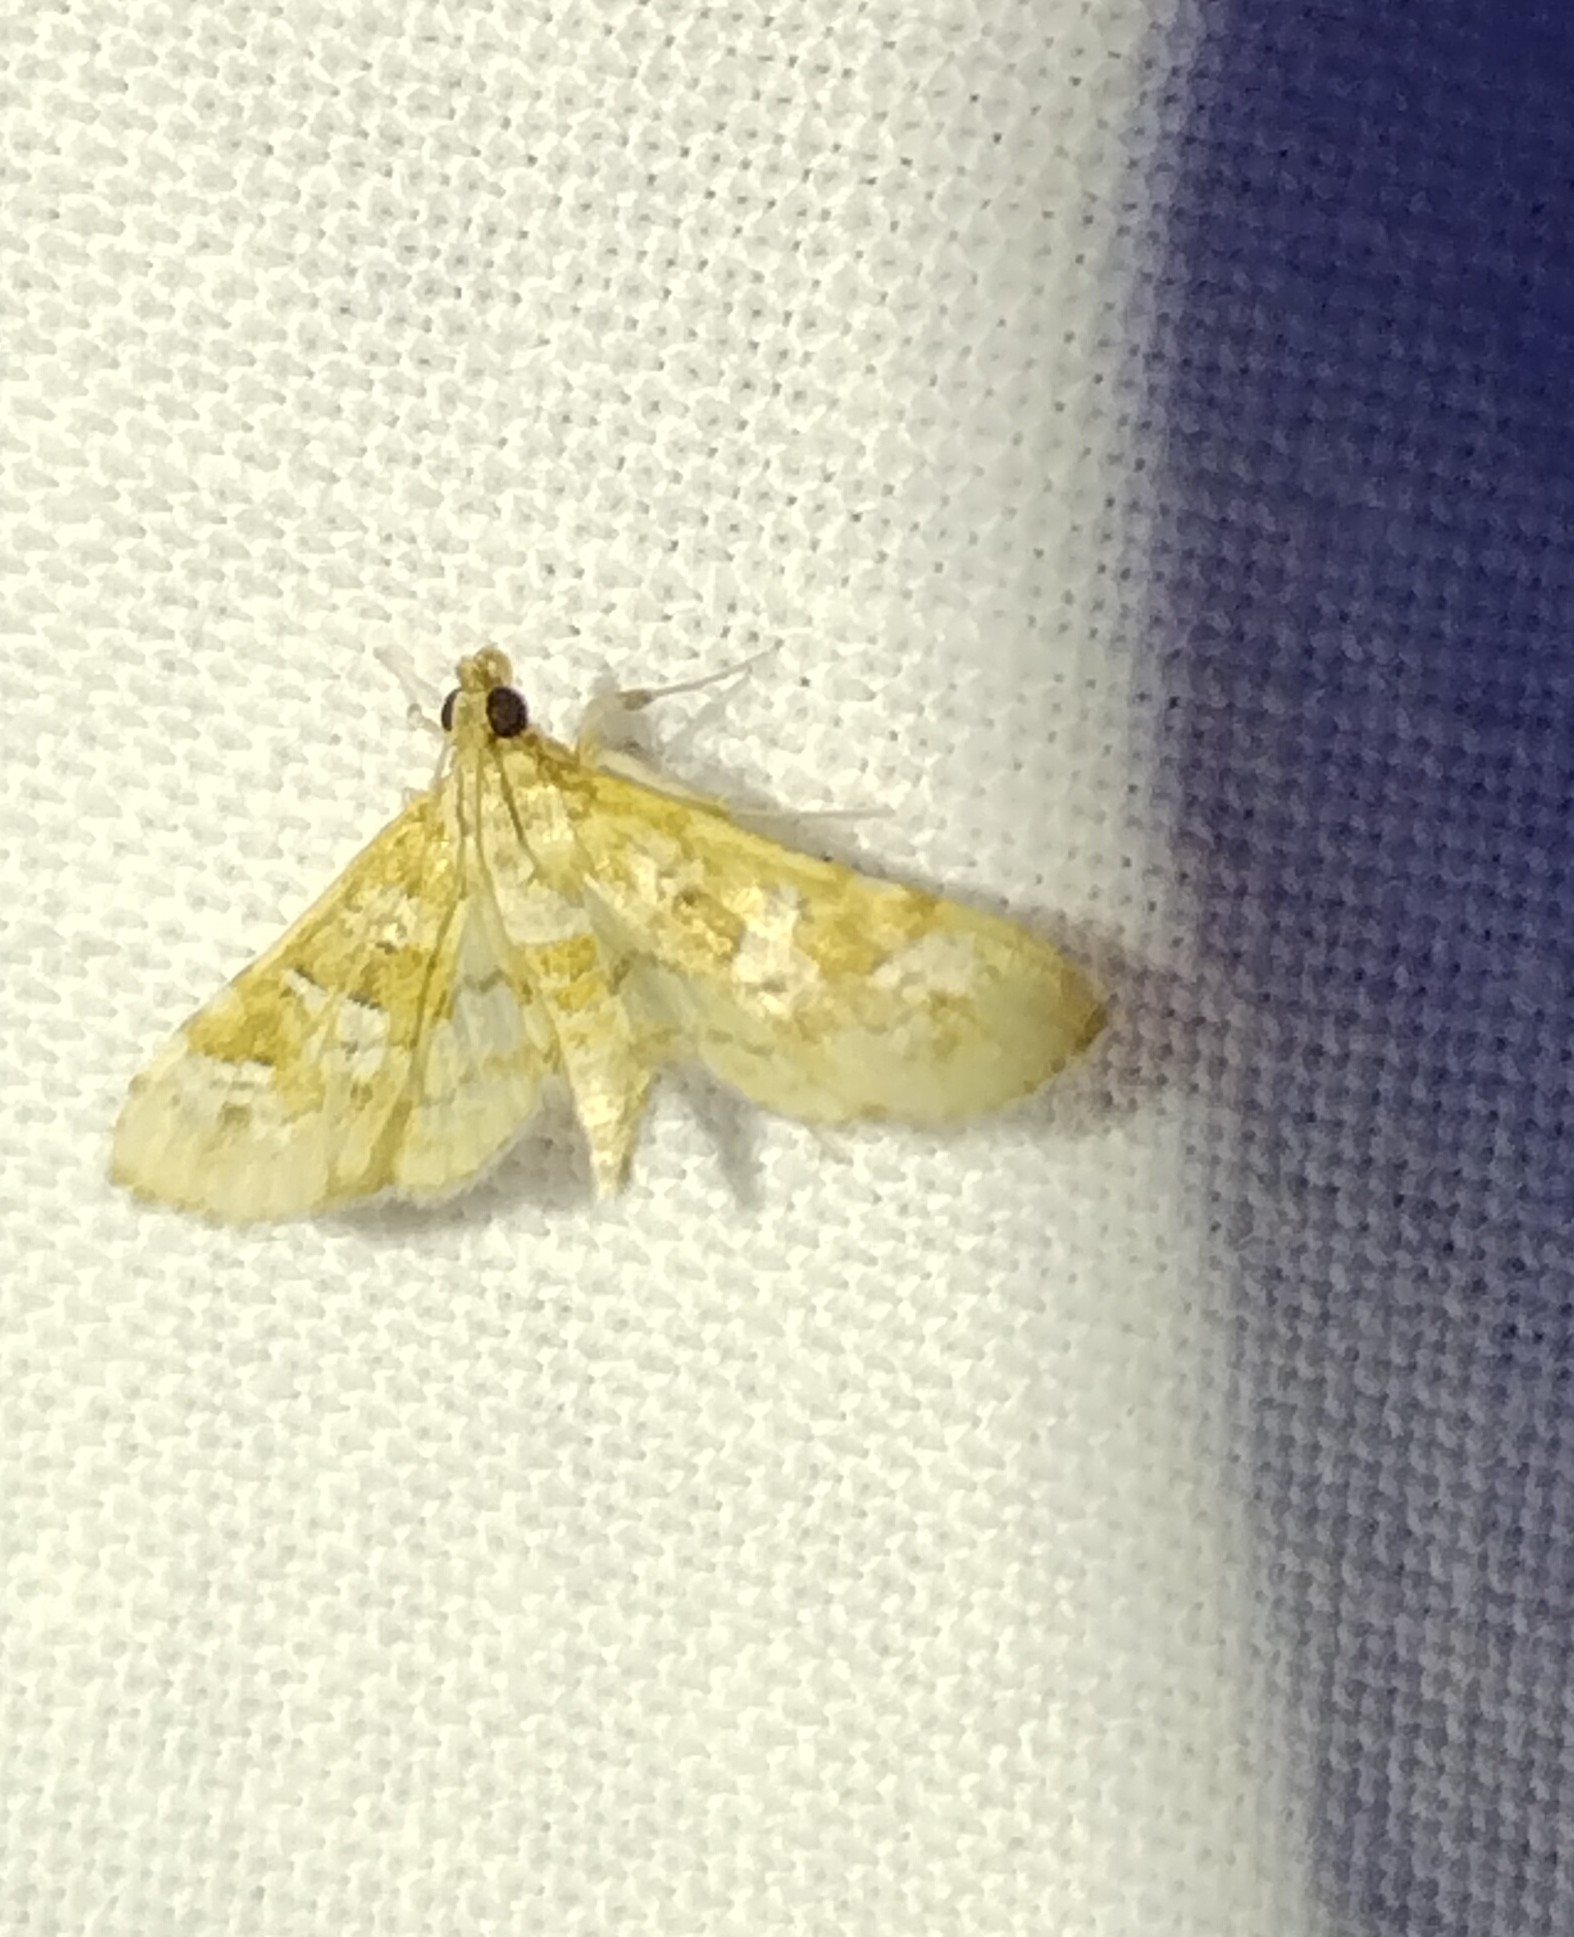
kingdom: Animalia
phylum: Arthropoda
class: Insecta
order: Lepidoptera
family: Crambidae
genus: Samea
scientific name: Samea multiplicalis
